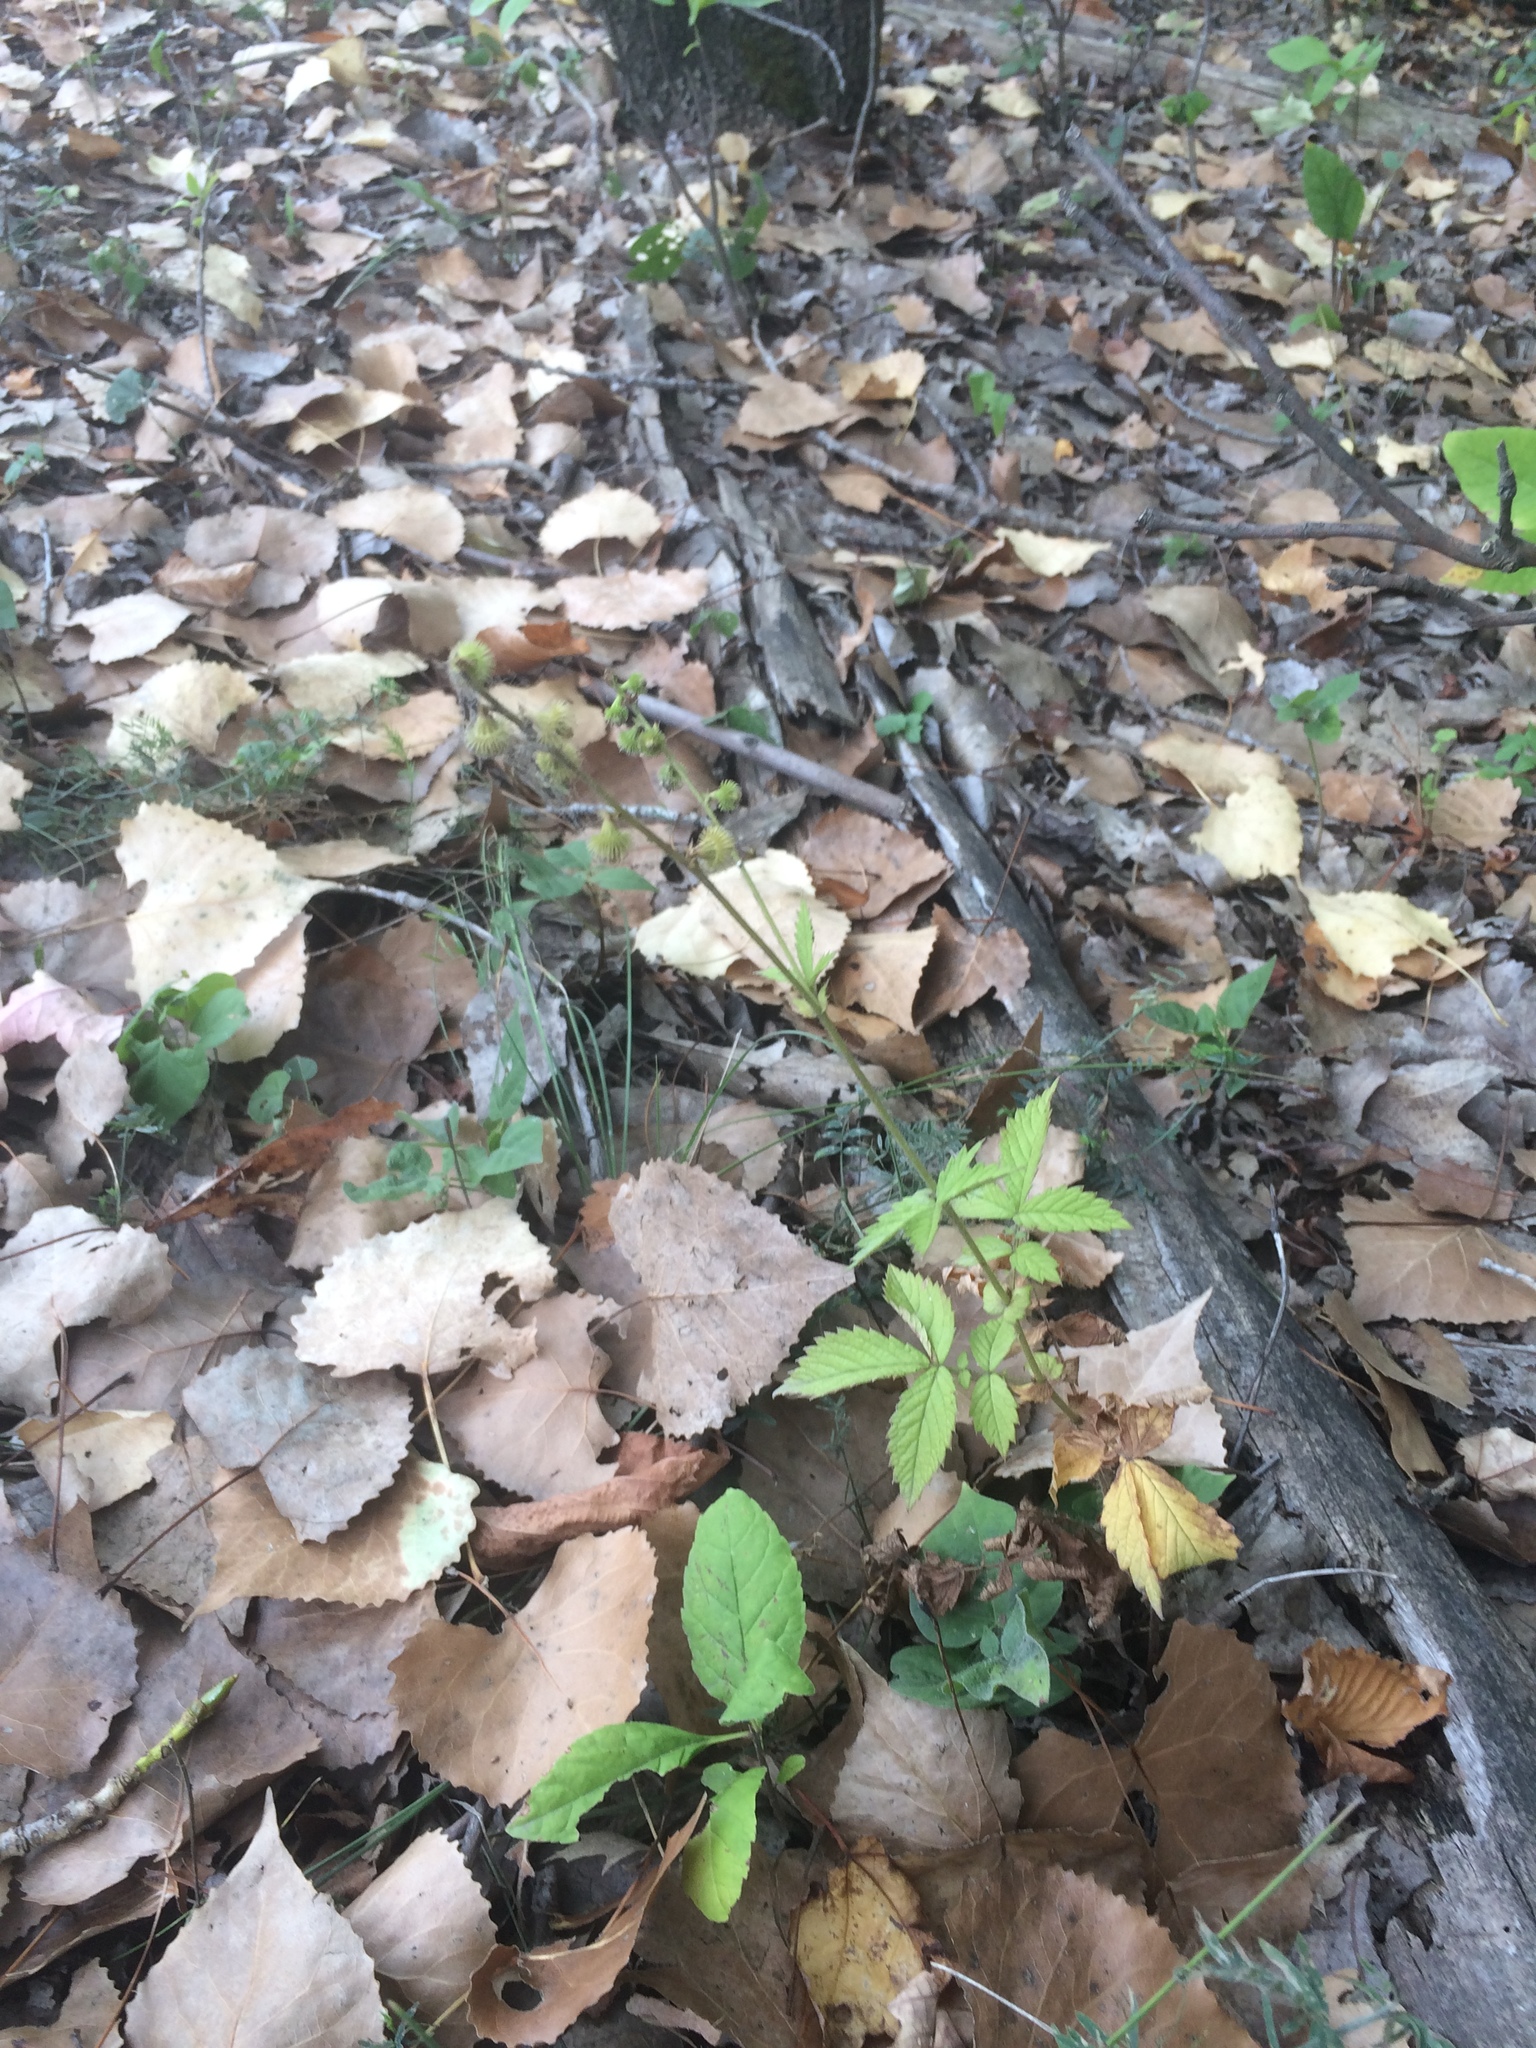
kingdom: Plantae
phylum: Tracheophyta
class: Magnoliopsida
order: Rosales
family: Rosaceae
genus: Agrimonia
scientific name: Agrimonia gryposepala
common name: Common agrimony
